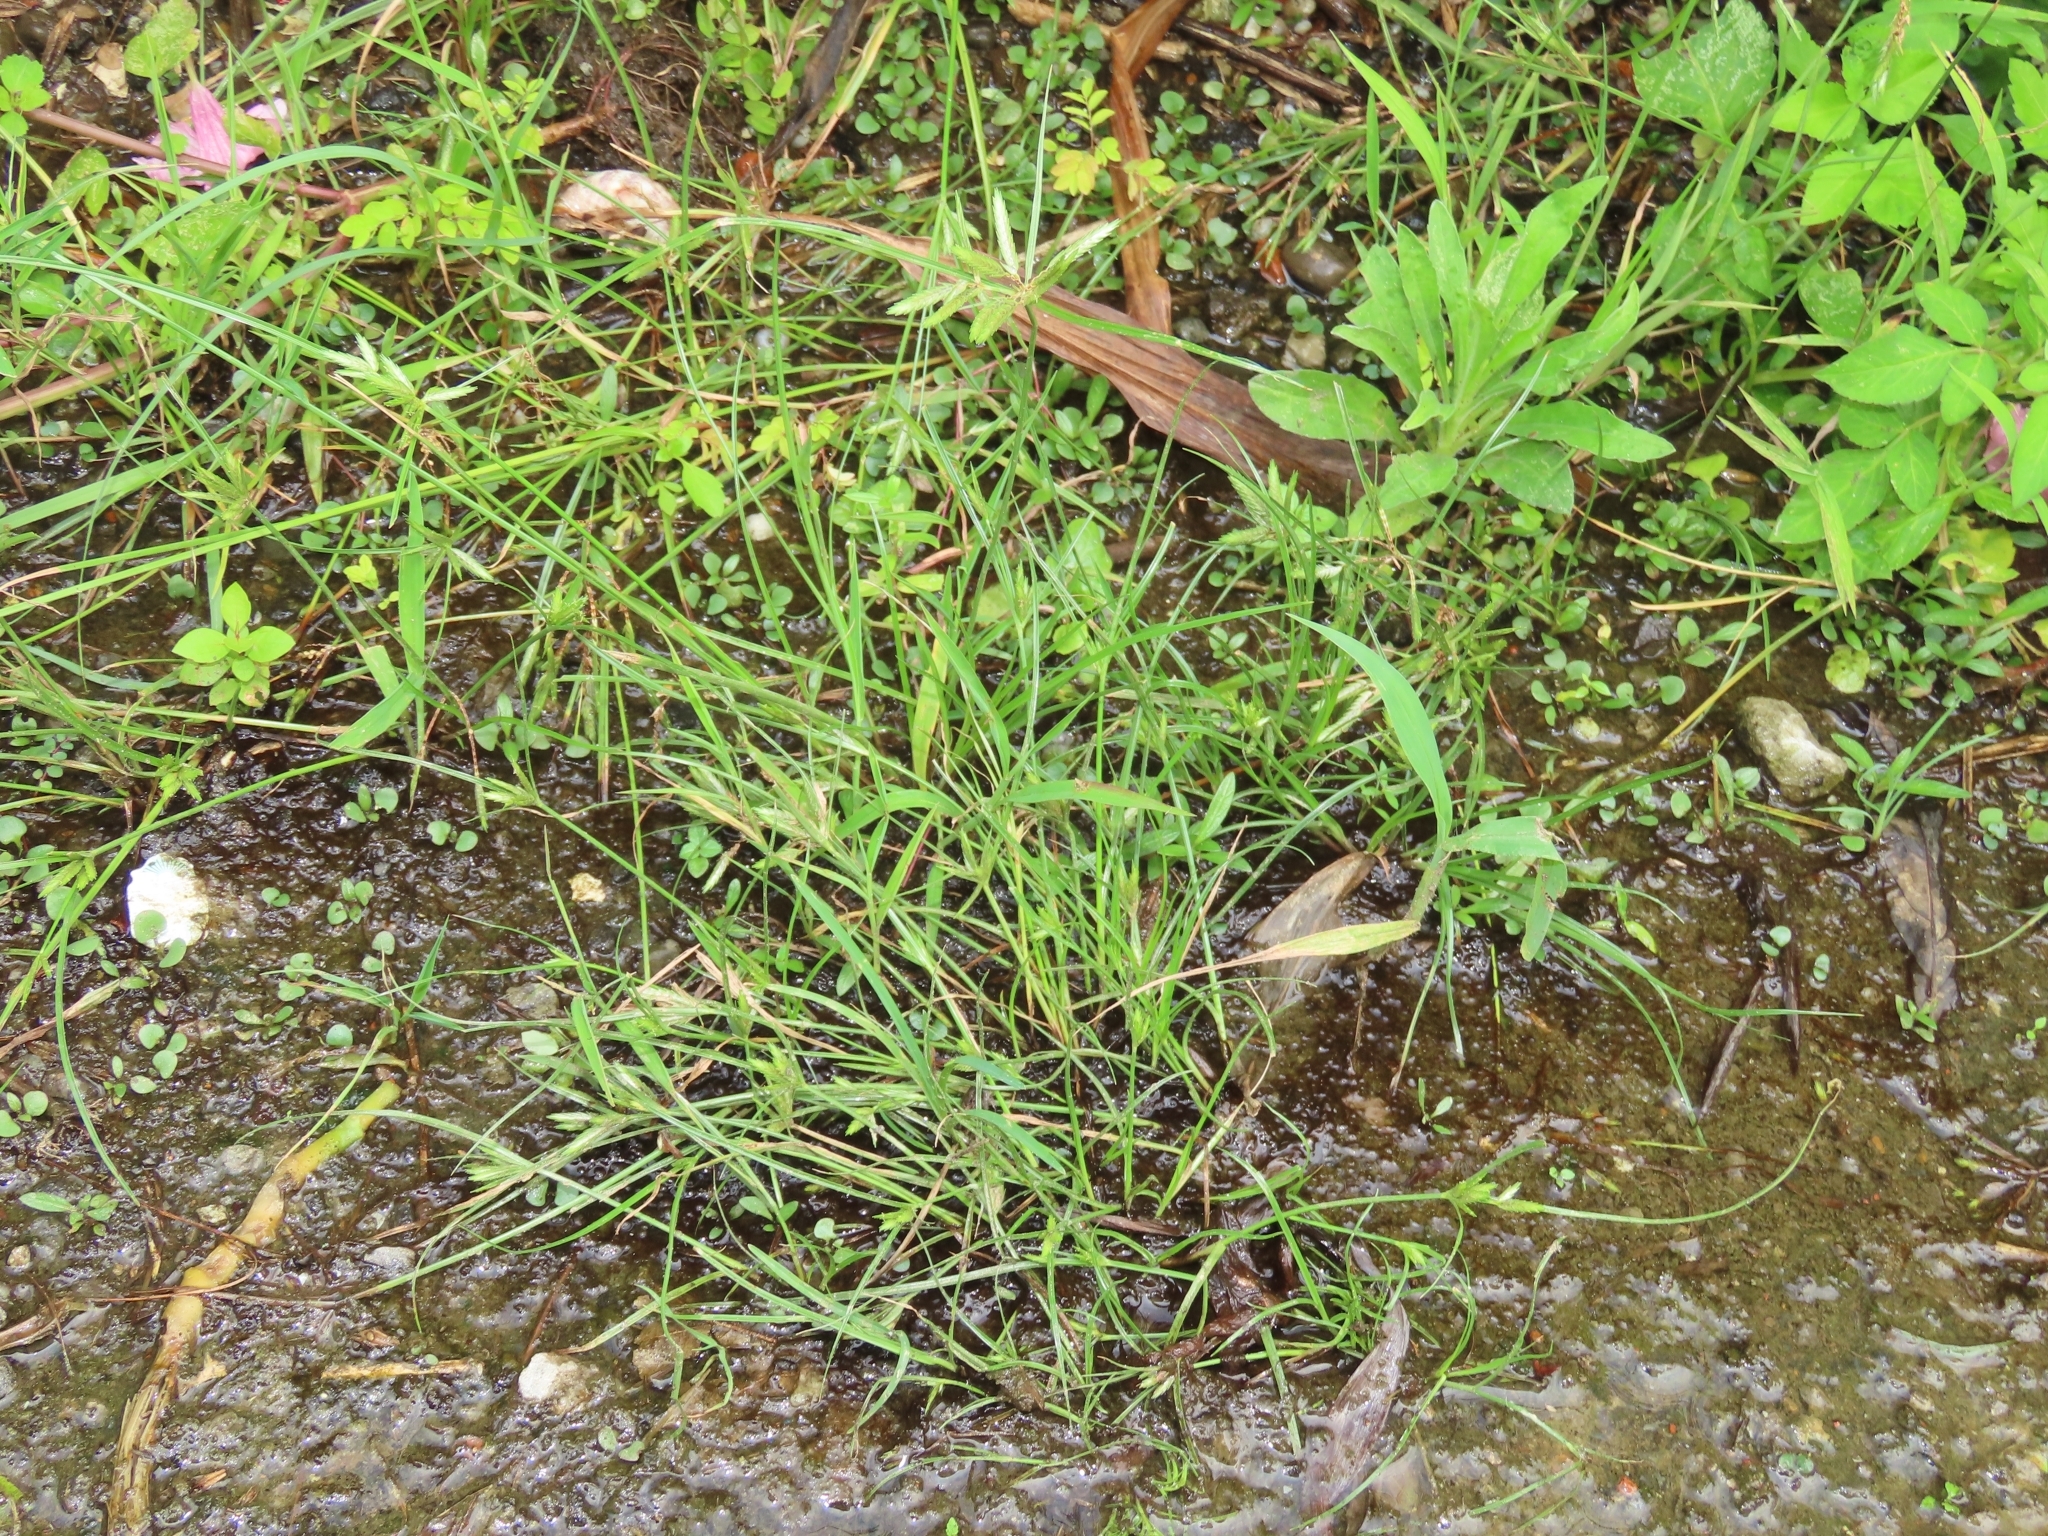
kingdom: Plantae
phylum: Tracheophyta
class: Liliopsida
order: Poales
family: Cyperaceae
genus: Cyperus
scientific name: Cyperus compressus
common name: Poorland flatsedge
